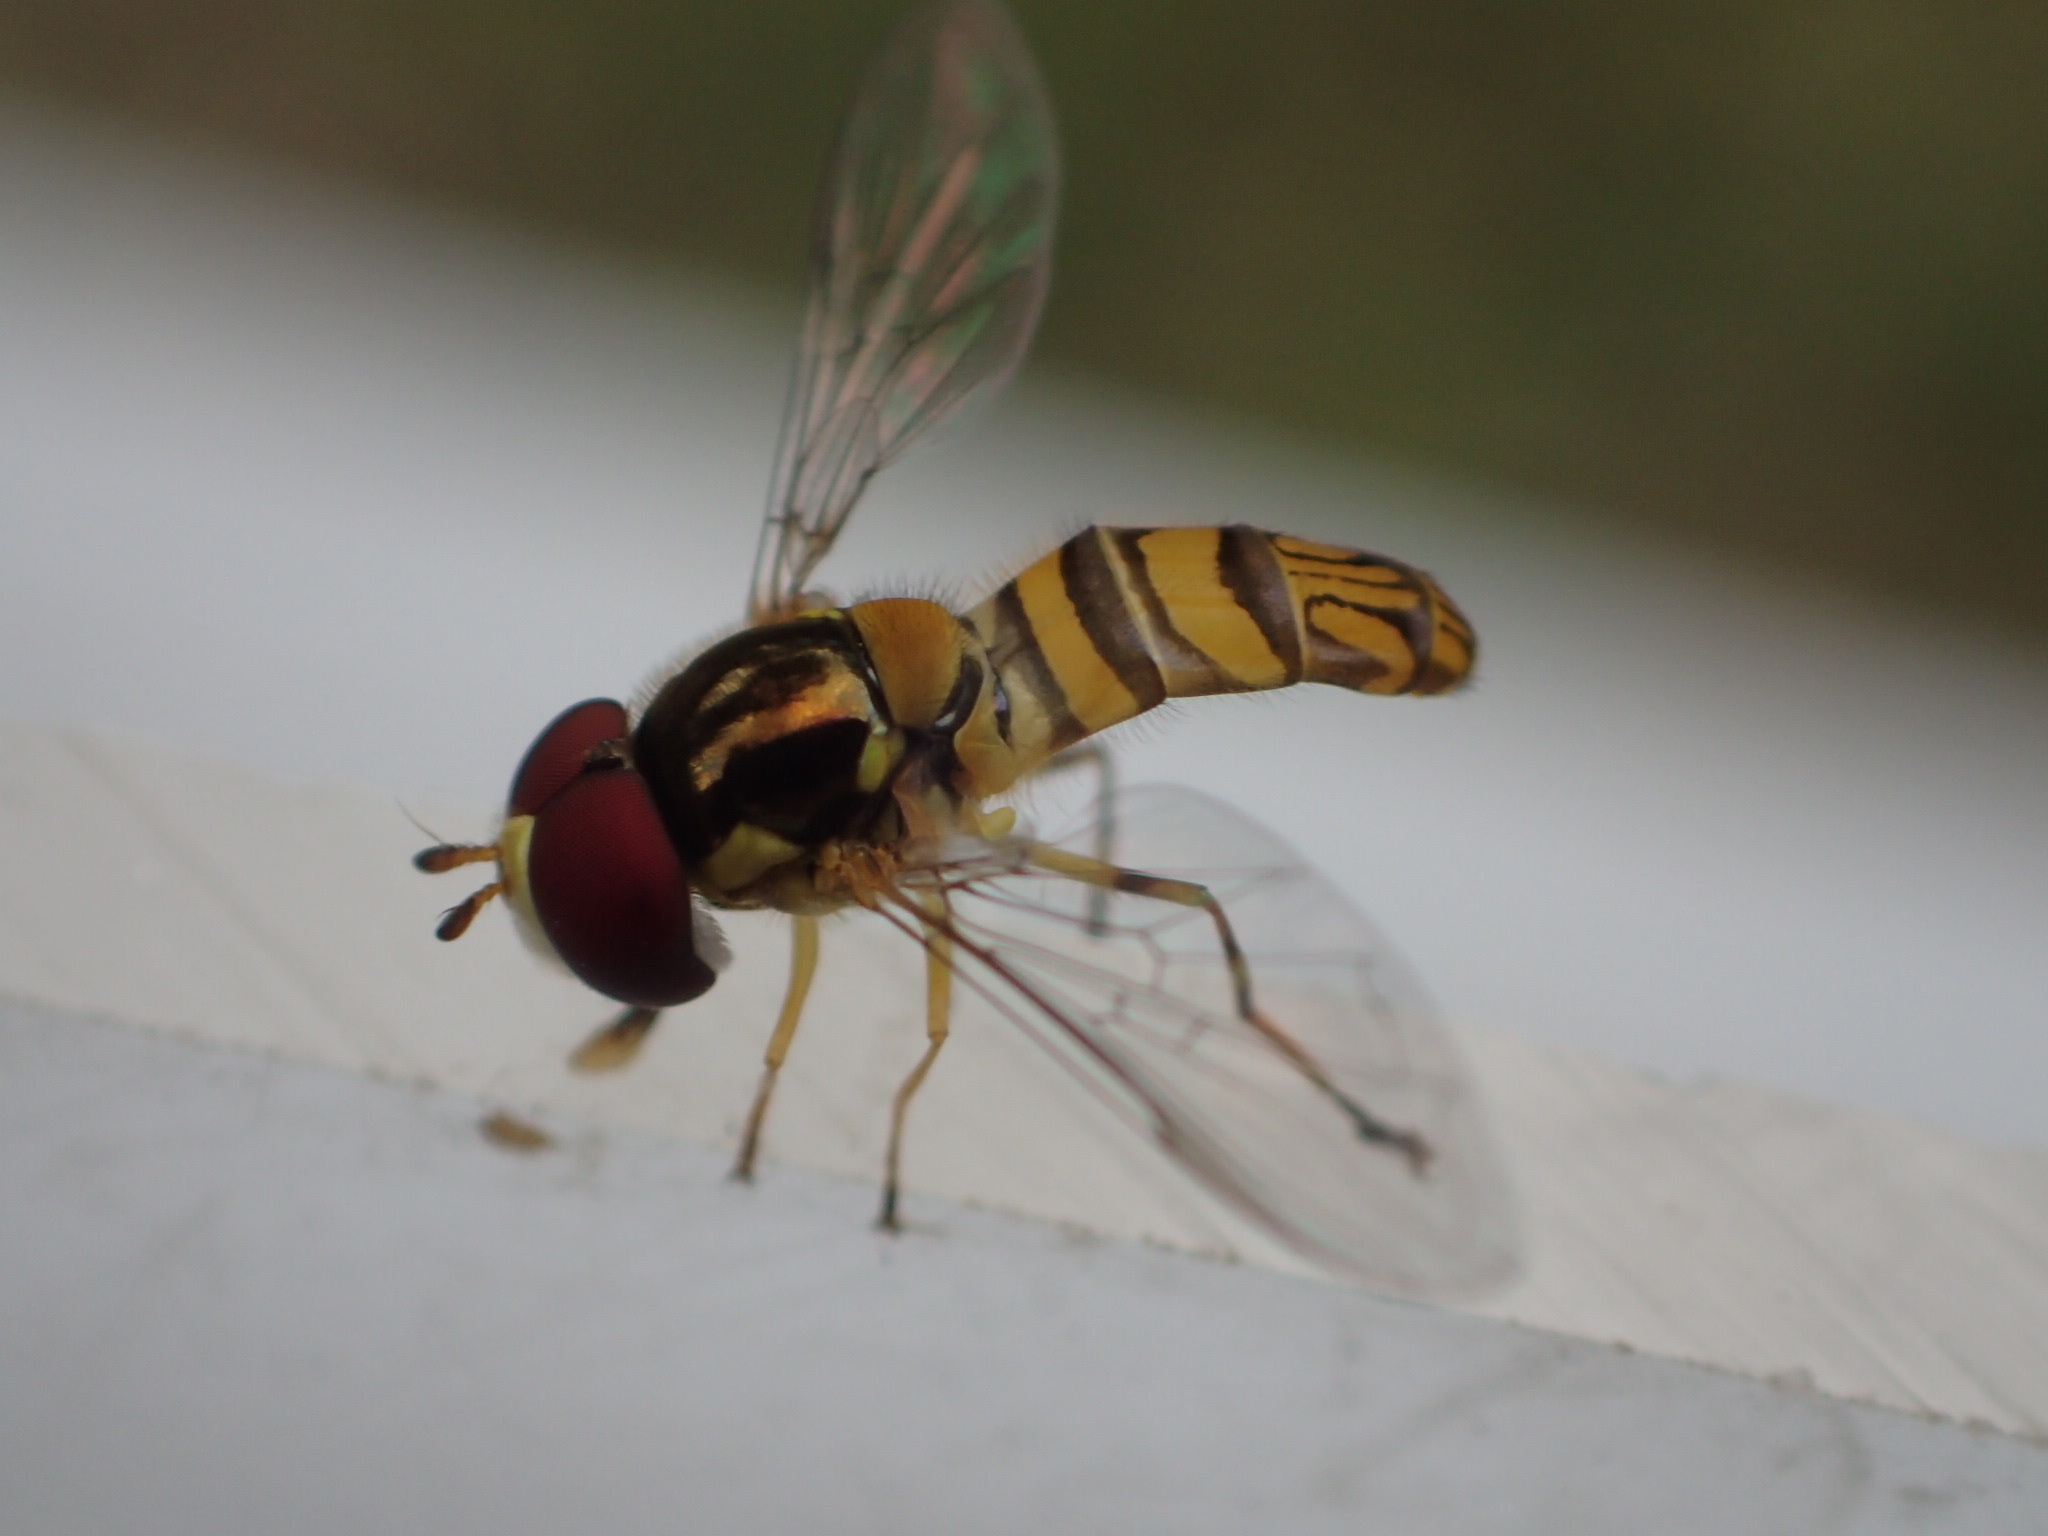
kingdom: Animalia
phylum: Arthropoda
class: Insecta
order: Diptera
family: Syrphidae
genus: Allograpta
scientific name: Allograpta obliqua
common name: Common oblique syrphid
